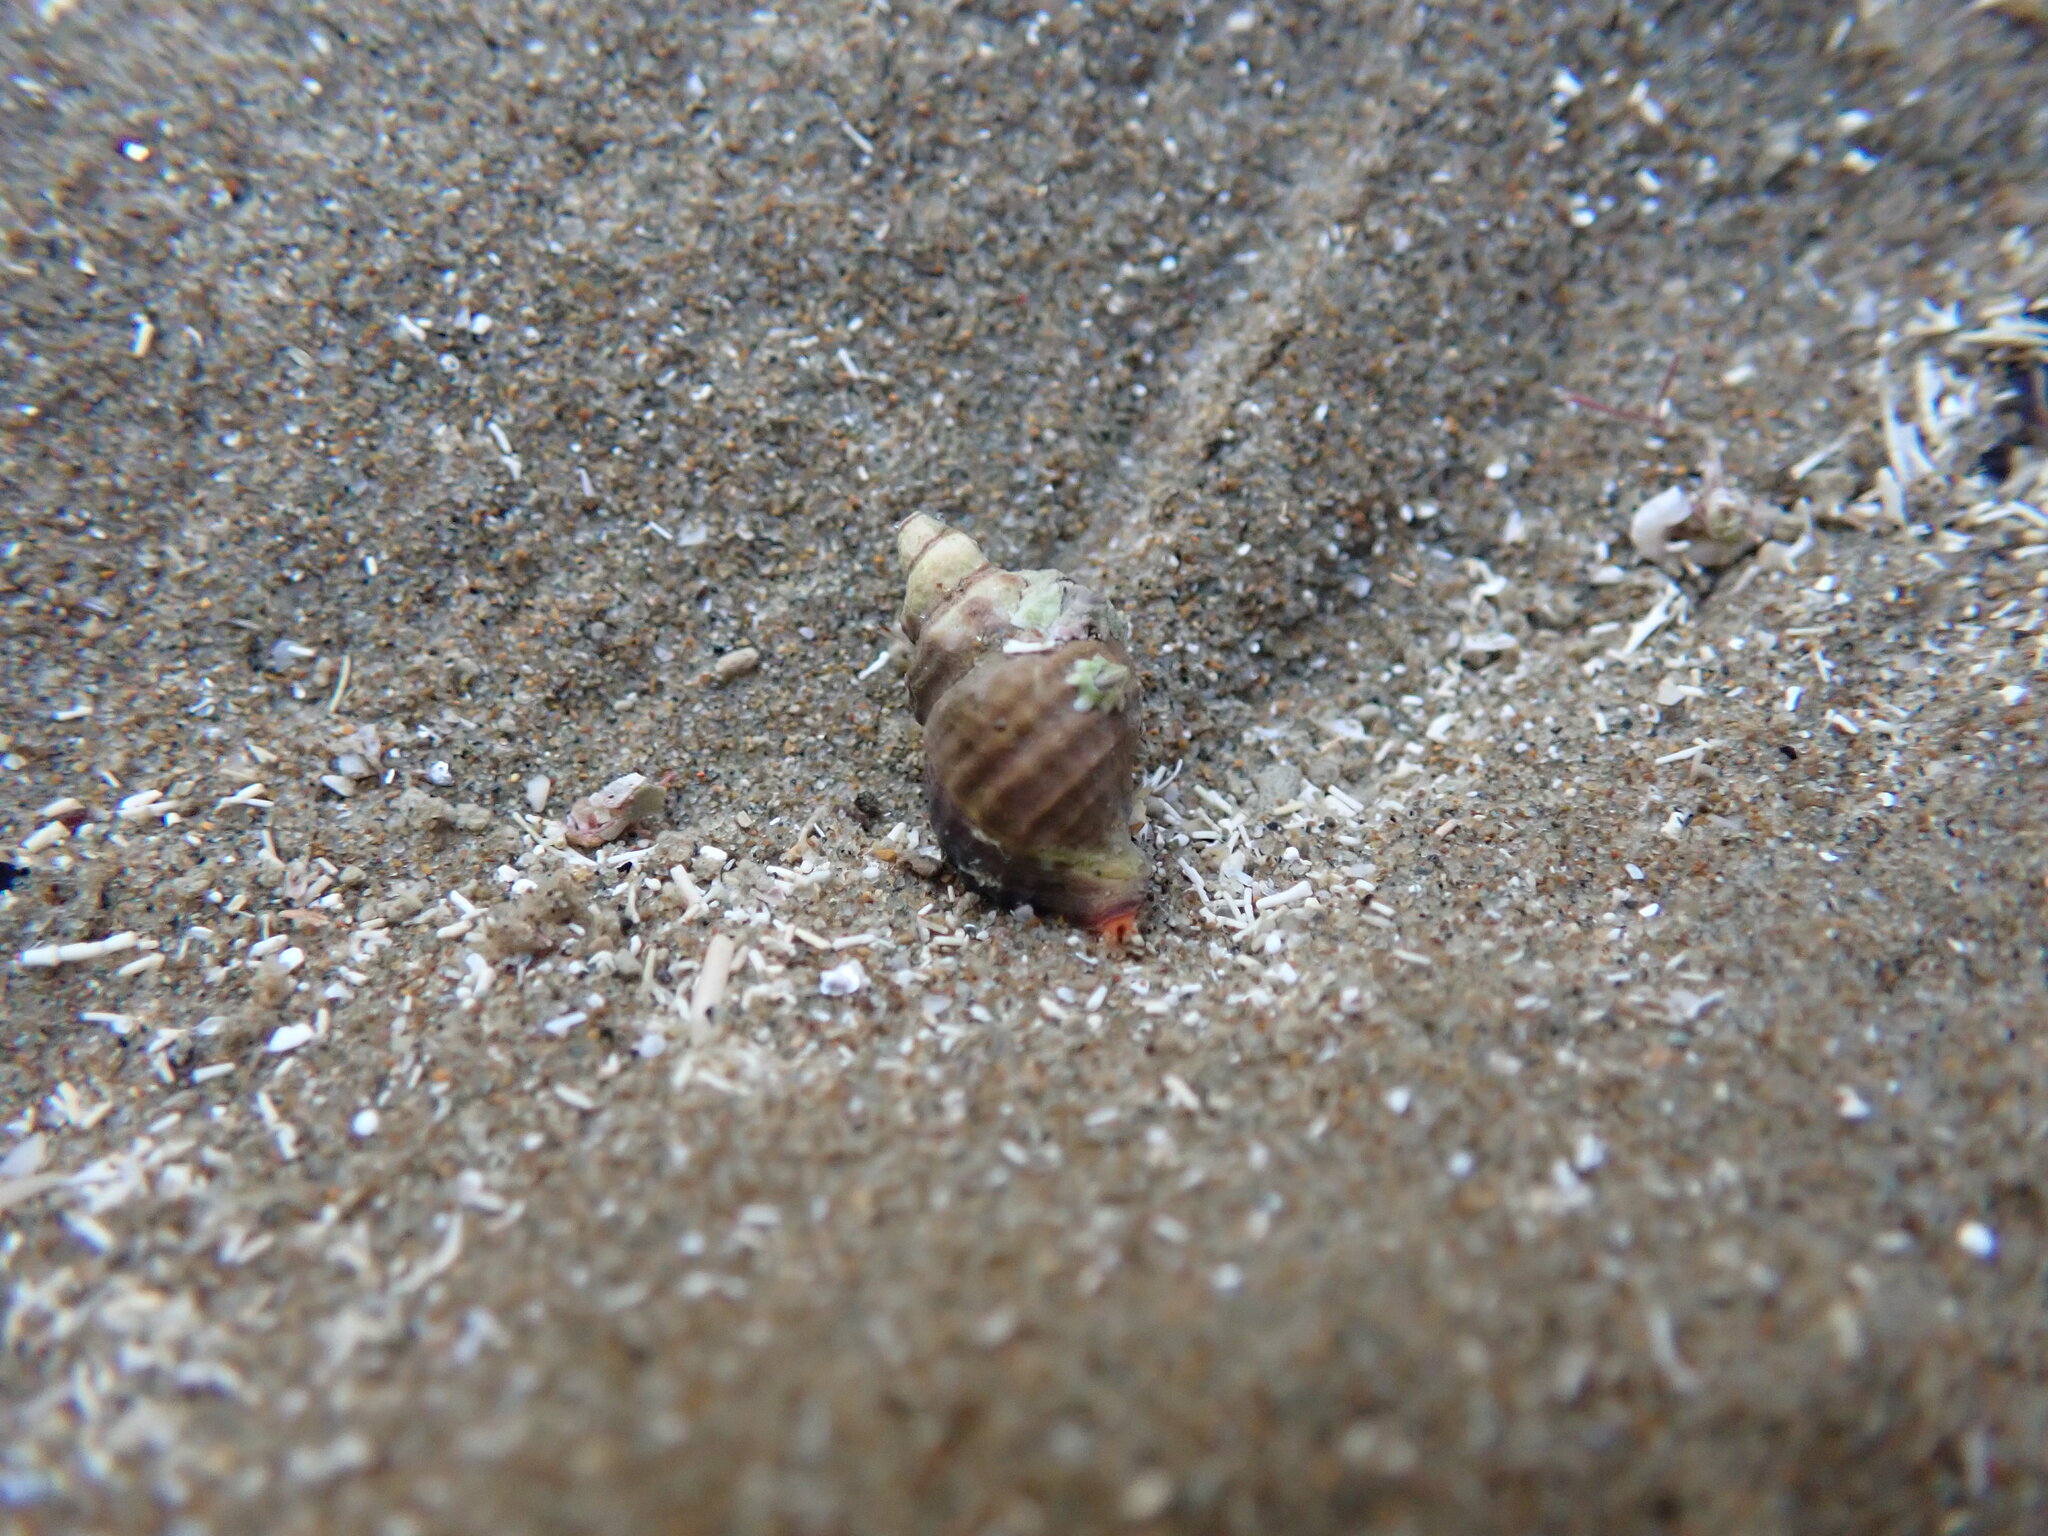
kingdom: Animalia
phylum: Mollusca
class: Gastropoda
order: Neogastropoda
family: Fasciolariidae
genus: Taron
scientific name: Taron dubius
